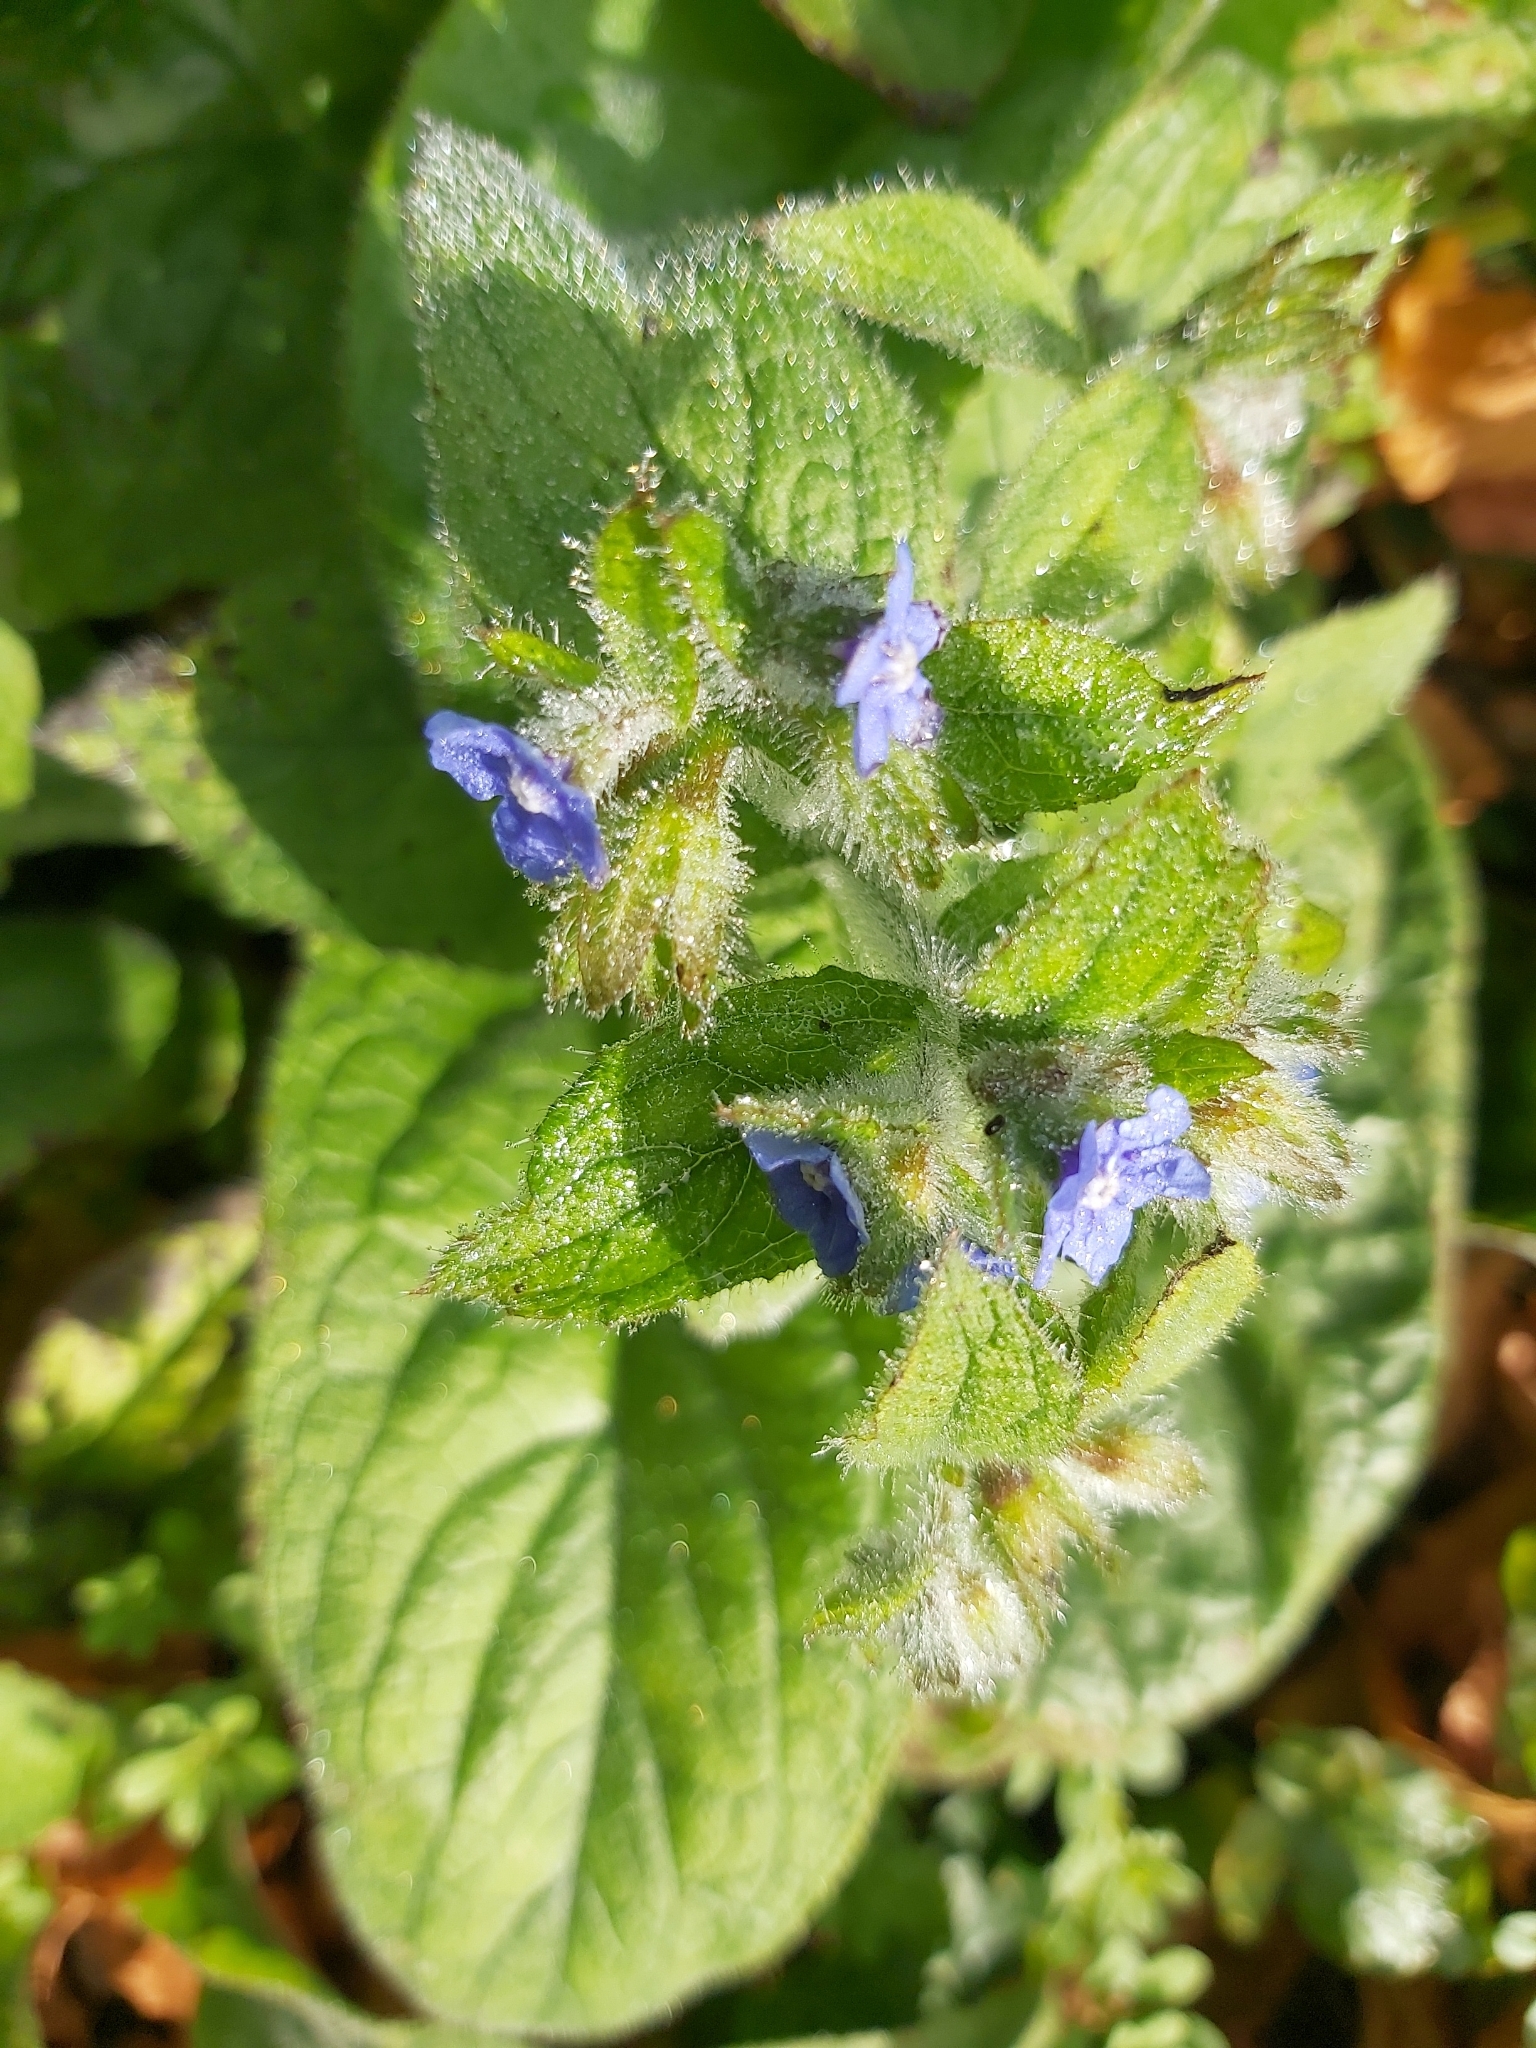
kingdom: Plantae
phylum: Tracheophyta
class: Magnoliopsida
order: Boraginales
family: Boraginaceae
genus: Pentaglottis
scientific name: Pentaglottis sempervirens
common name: Green alkanet
